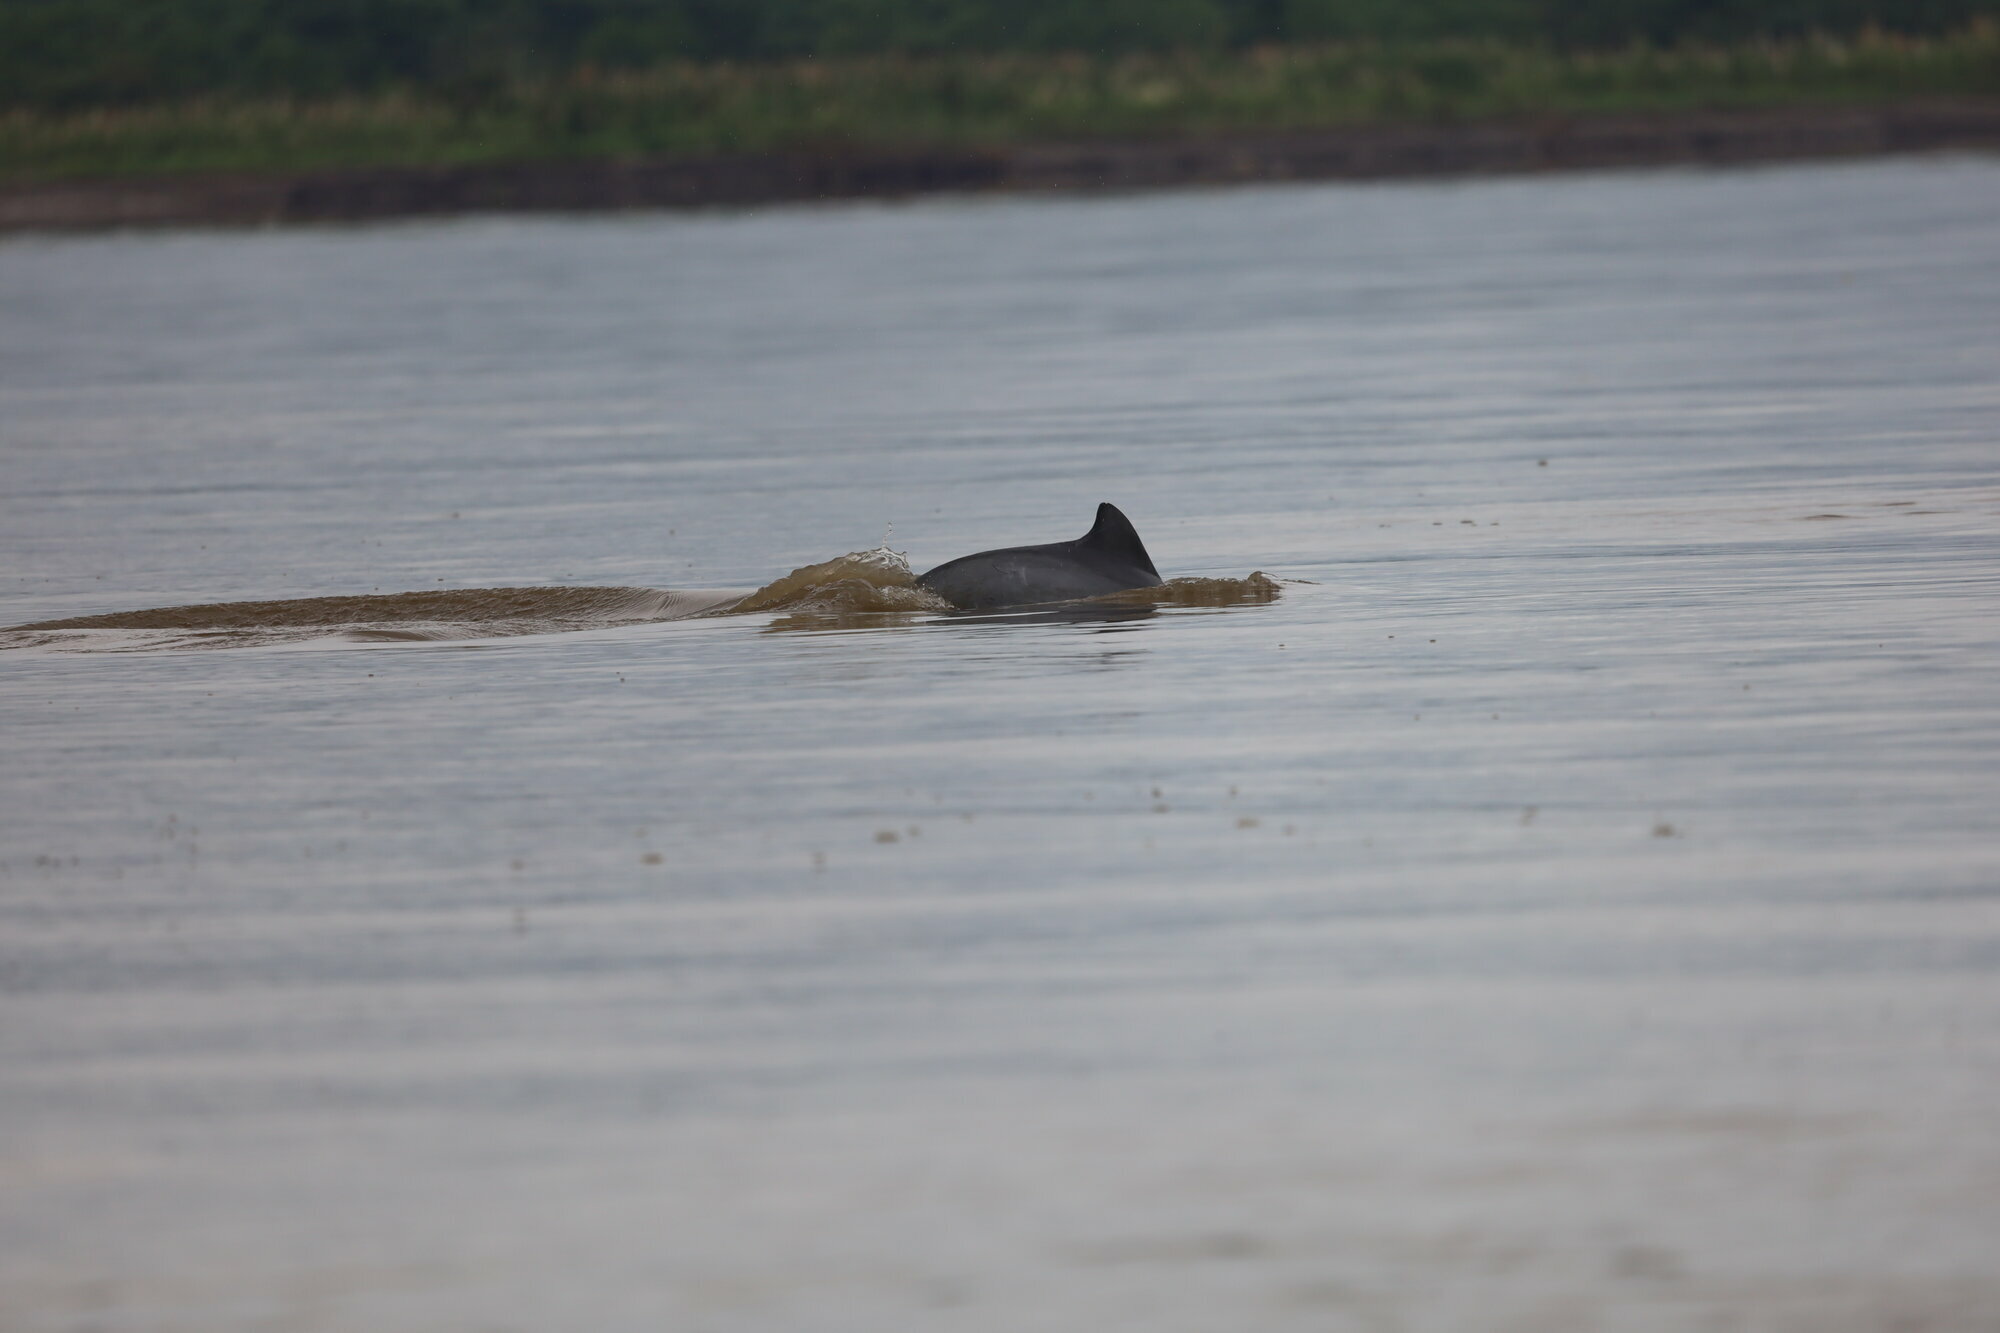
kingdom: Animalia
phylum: Chordata
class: Mammalia
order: Cetacea
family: Delphinidae
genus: Sotalia
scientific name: Sotalia fluviatilis
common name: Tucuxi
